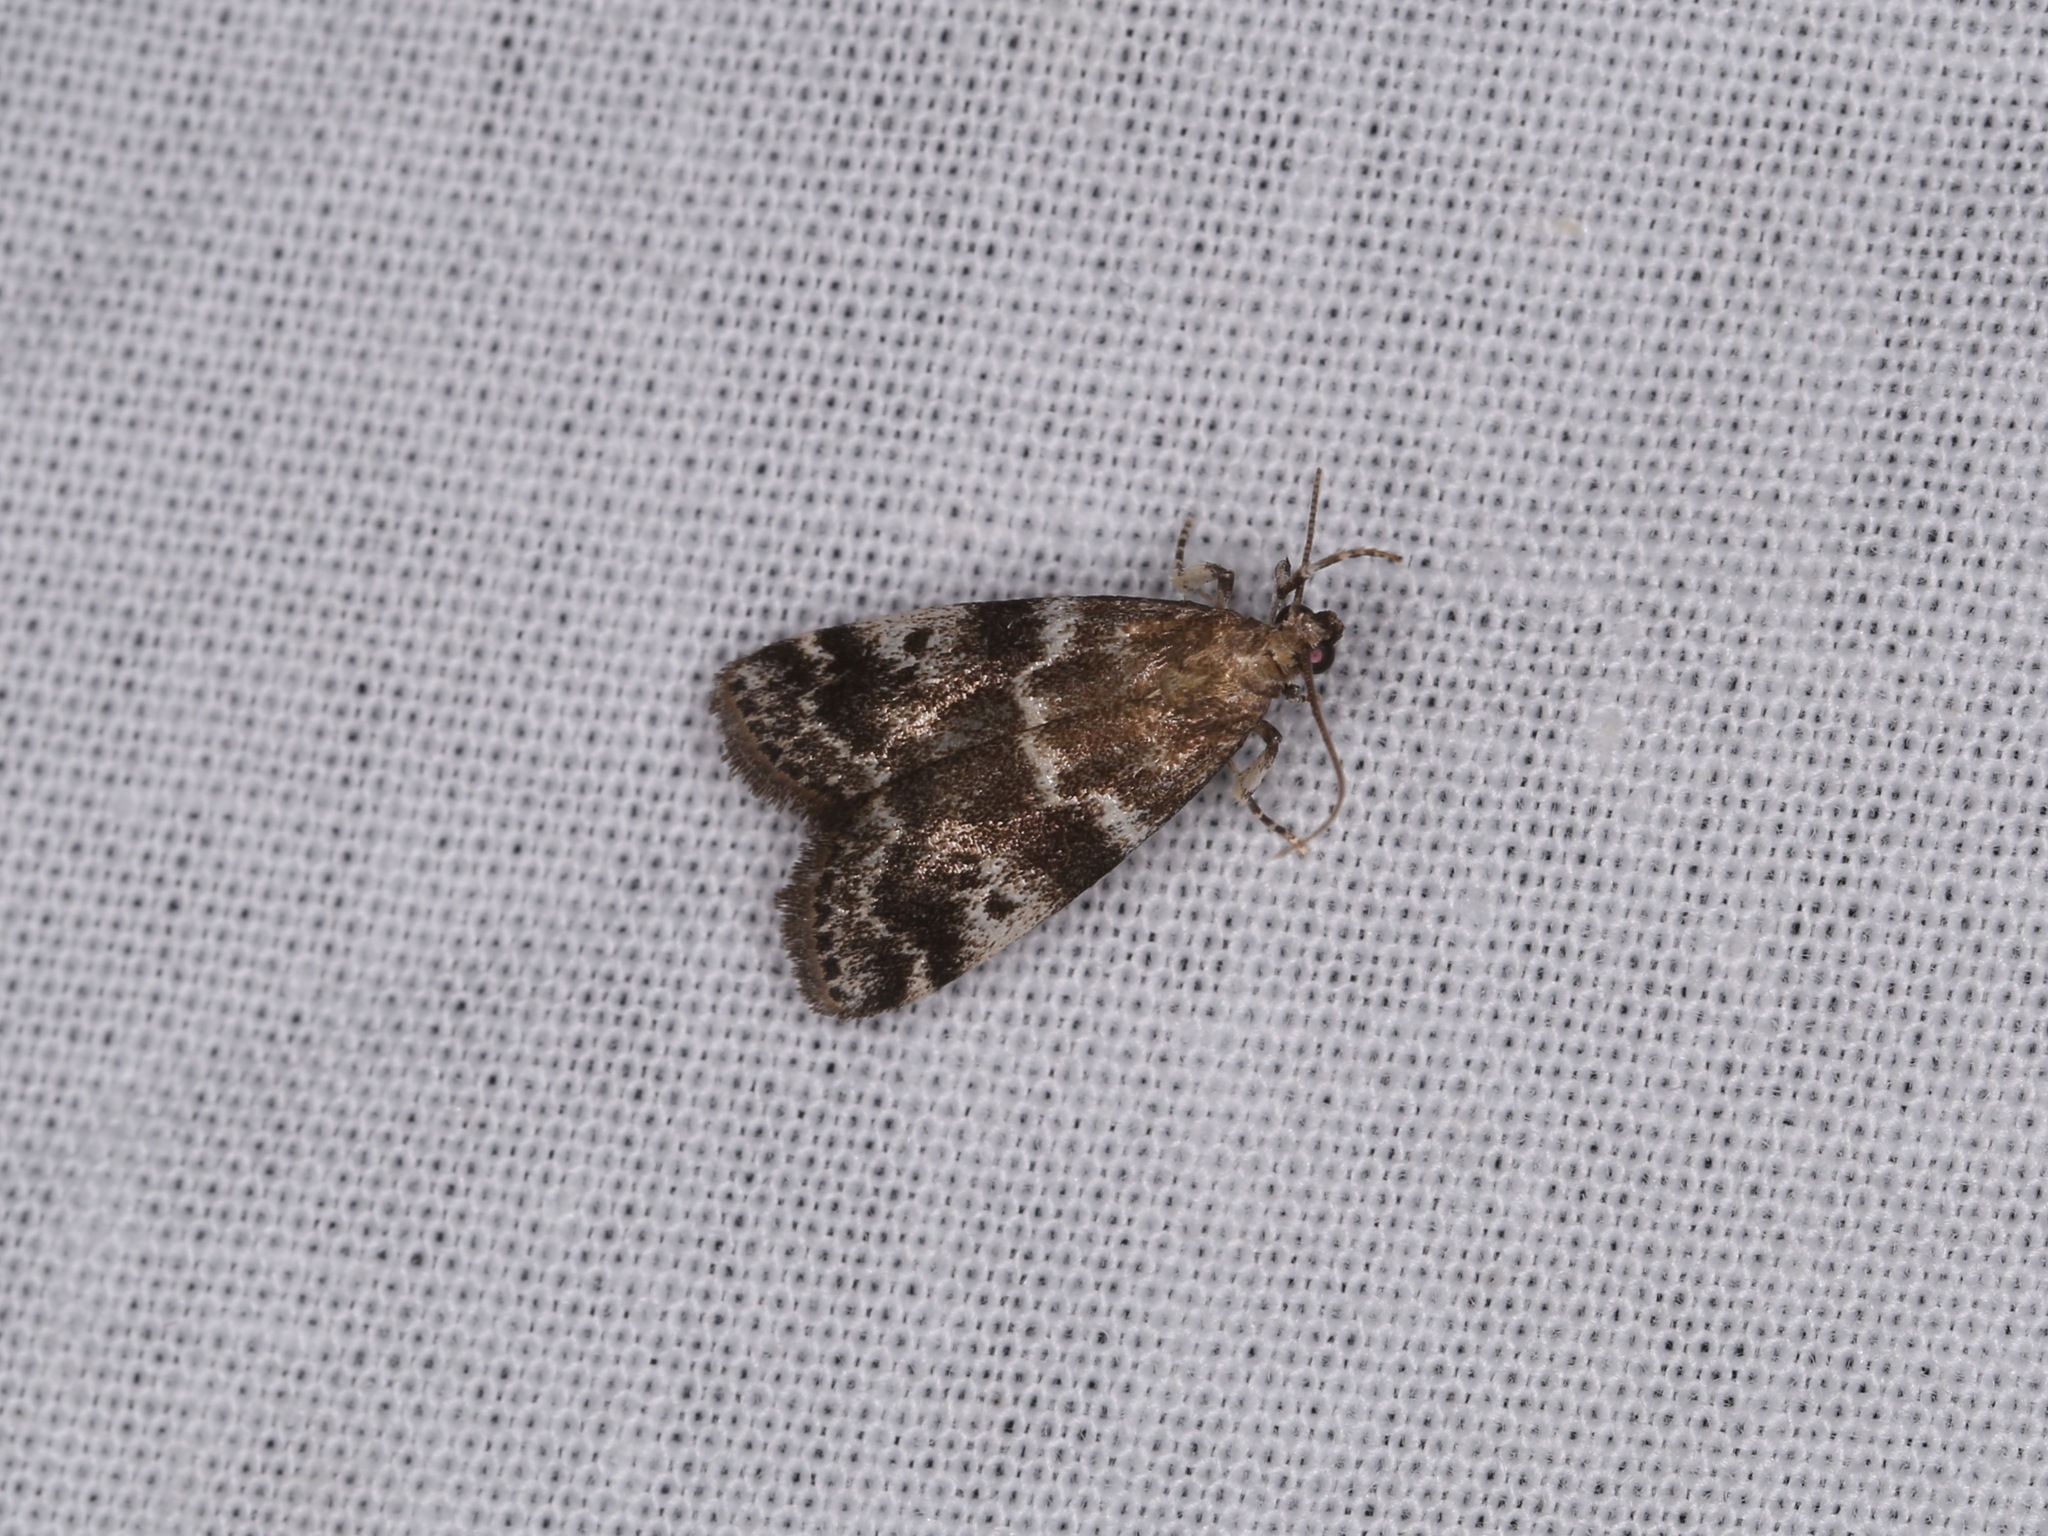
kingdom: Animalia
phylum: Arthropoda
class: Insecta
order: Lepidoptera
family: Pyralidae
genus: Assara
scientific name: Assara terebrella
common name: Dark spruce knot-horn
